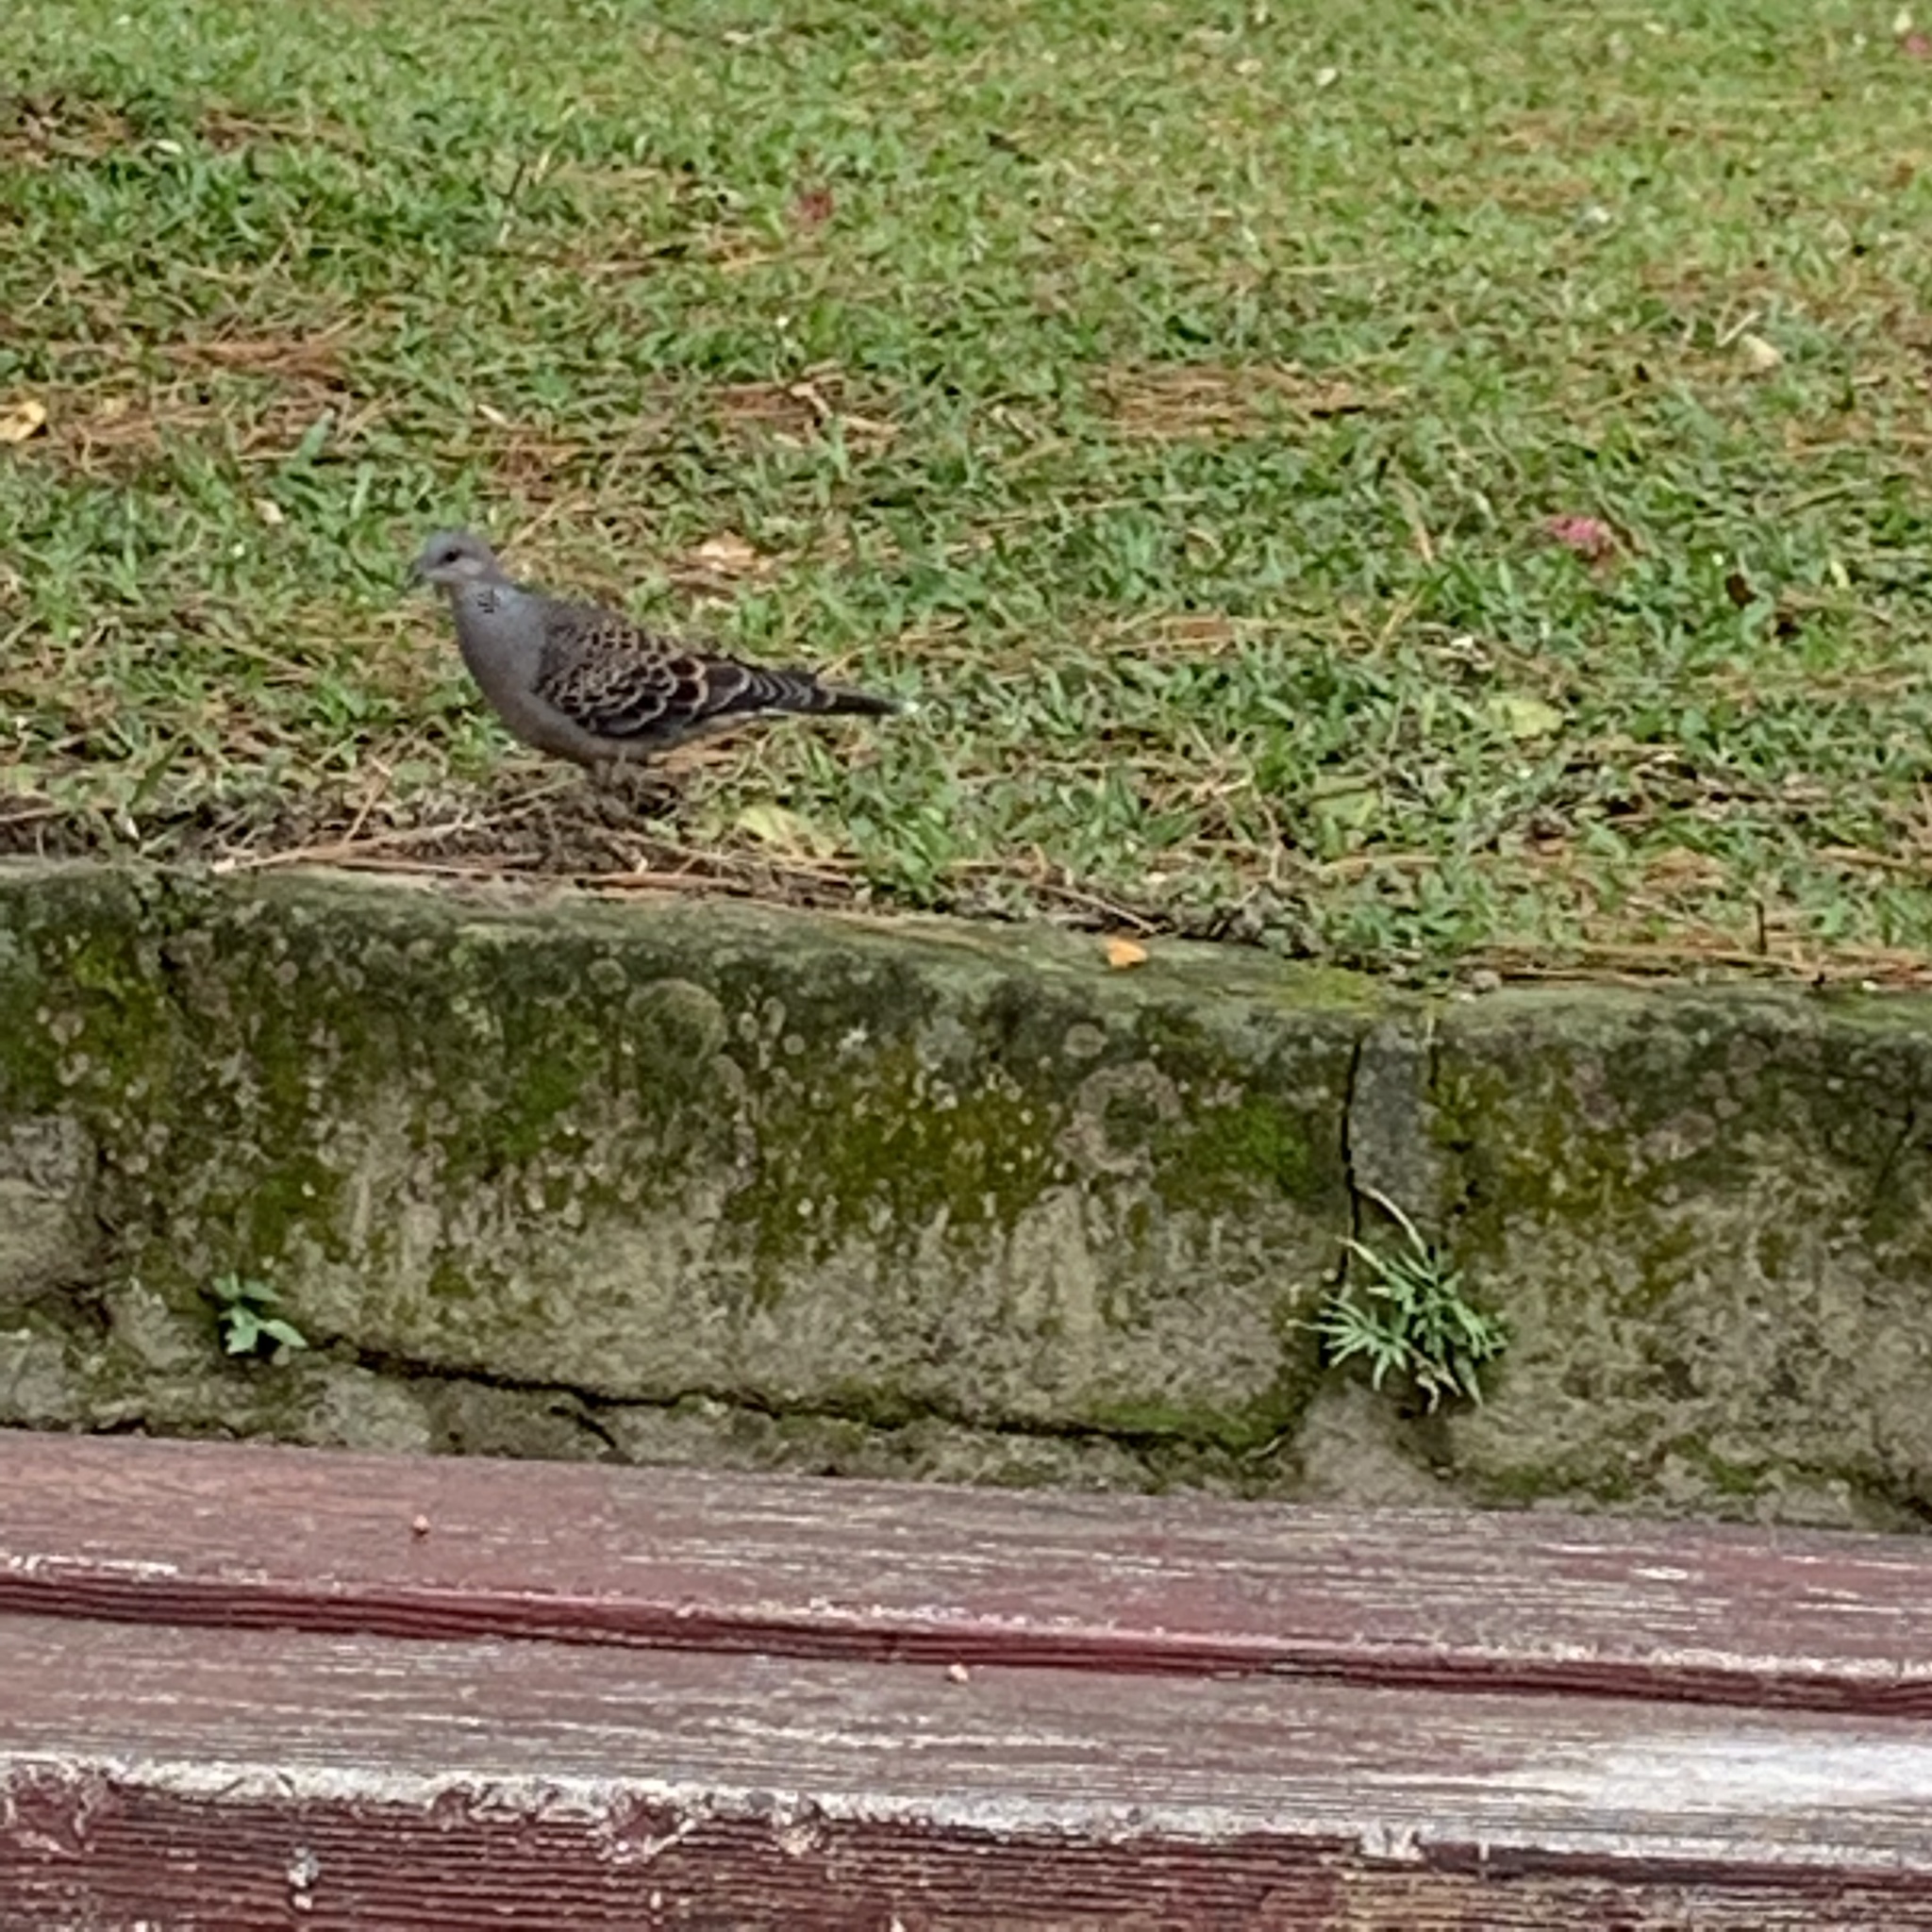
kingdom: Animalia
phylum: Chordata
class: Aves
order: Columbiformes
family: Columbidae
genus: Streptopelia
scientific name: Streptopelia orientalis
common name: Oriental turtle dove
